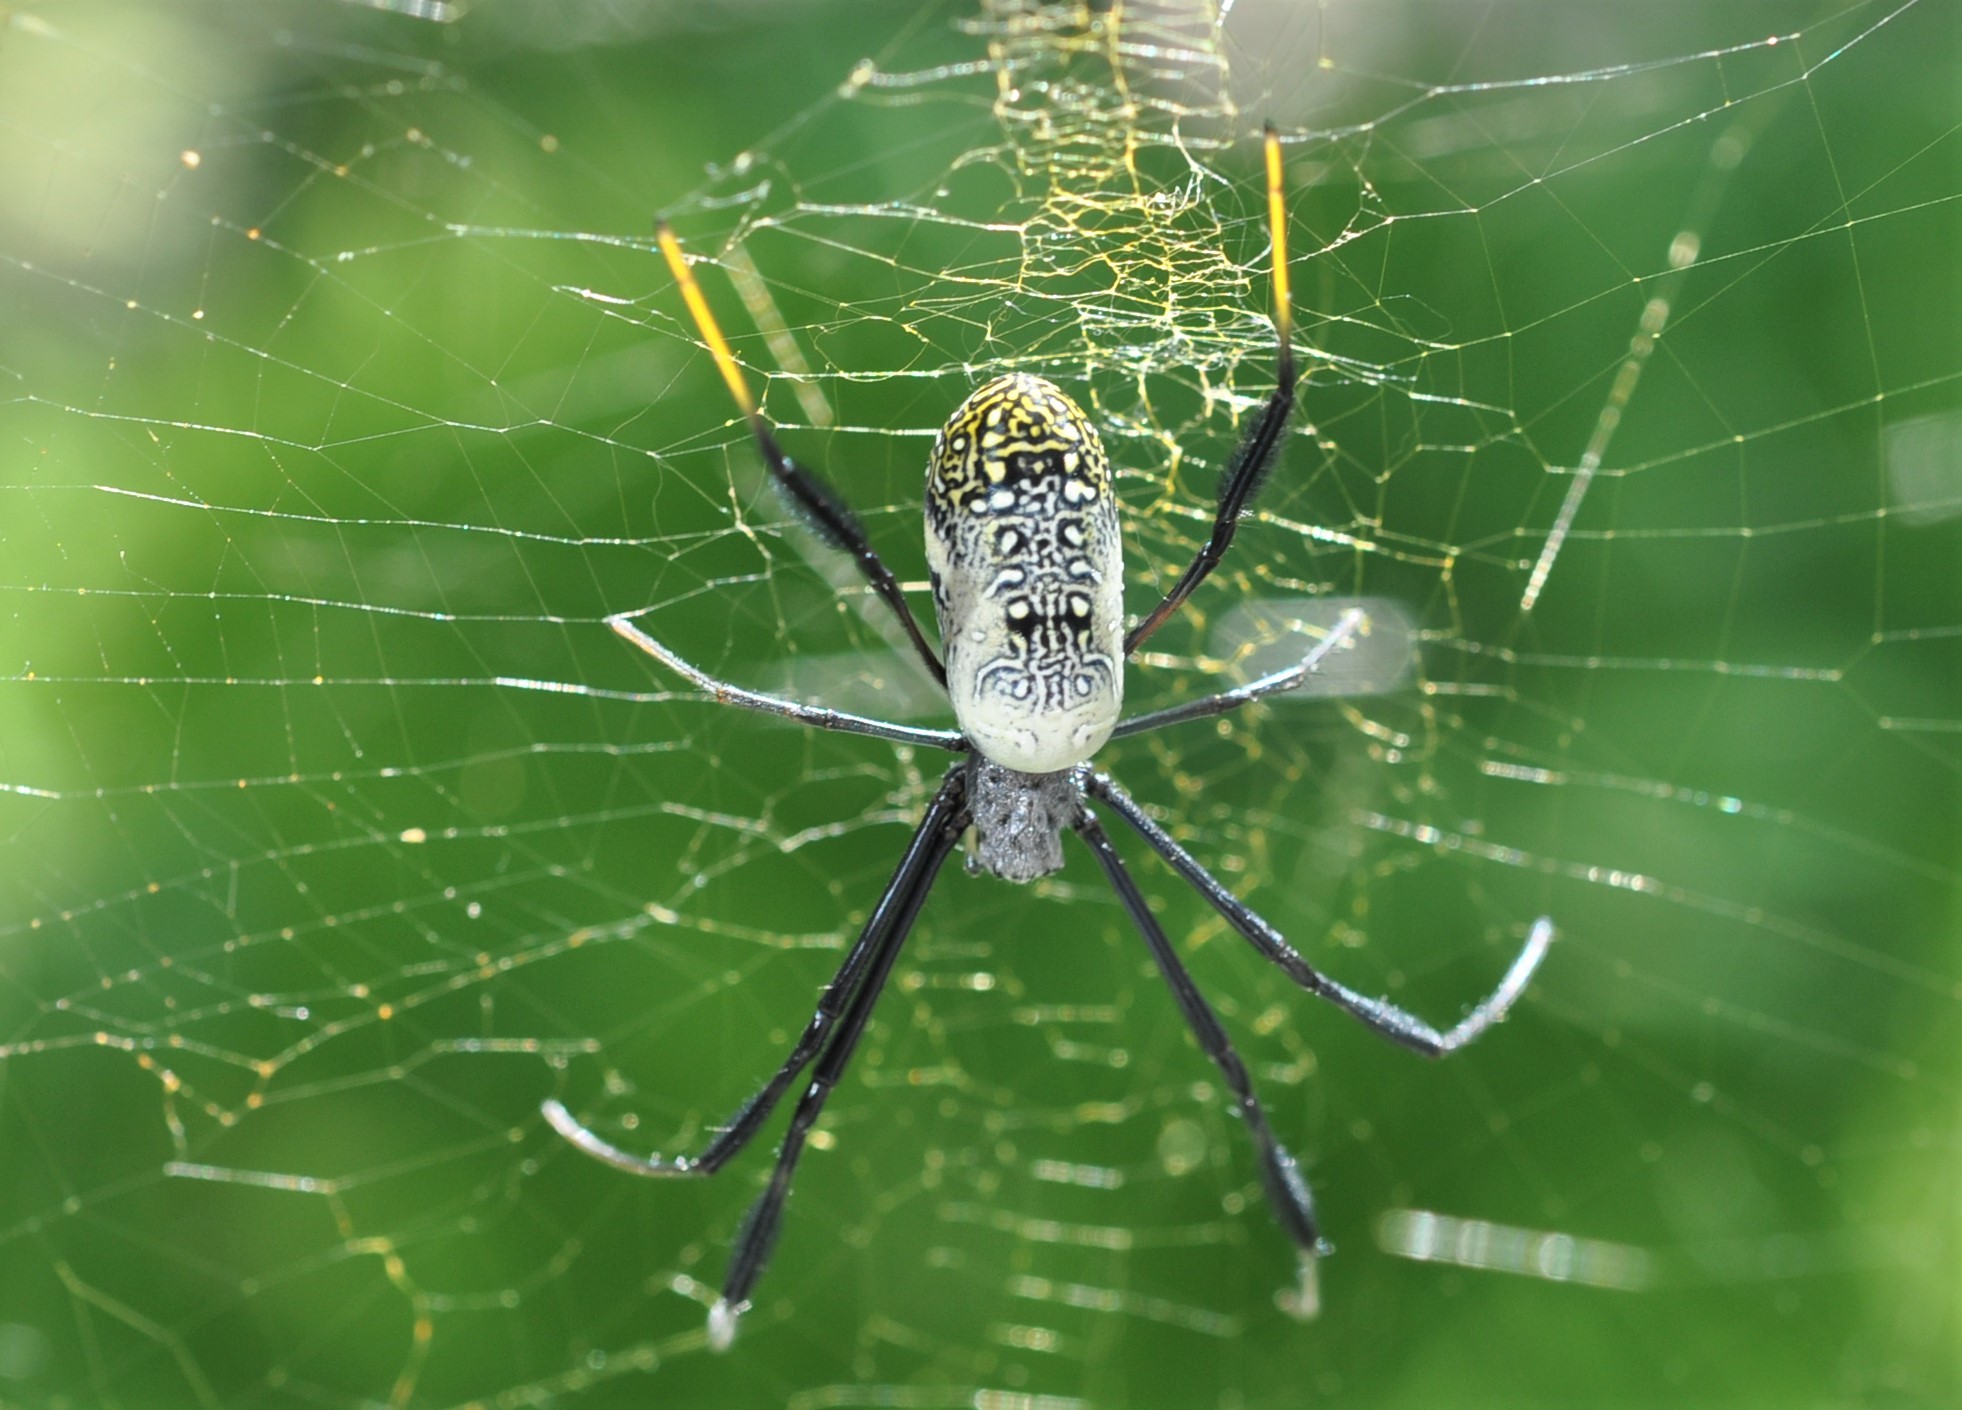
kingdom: Animalia
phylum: Arthropoda
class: Arachnida
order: Araneae
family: Araneidae
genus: Trichonephila
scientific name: Trichonephila fenestrata
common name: Hairy golden orb weaver
